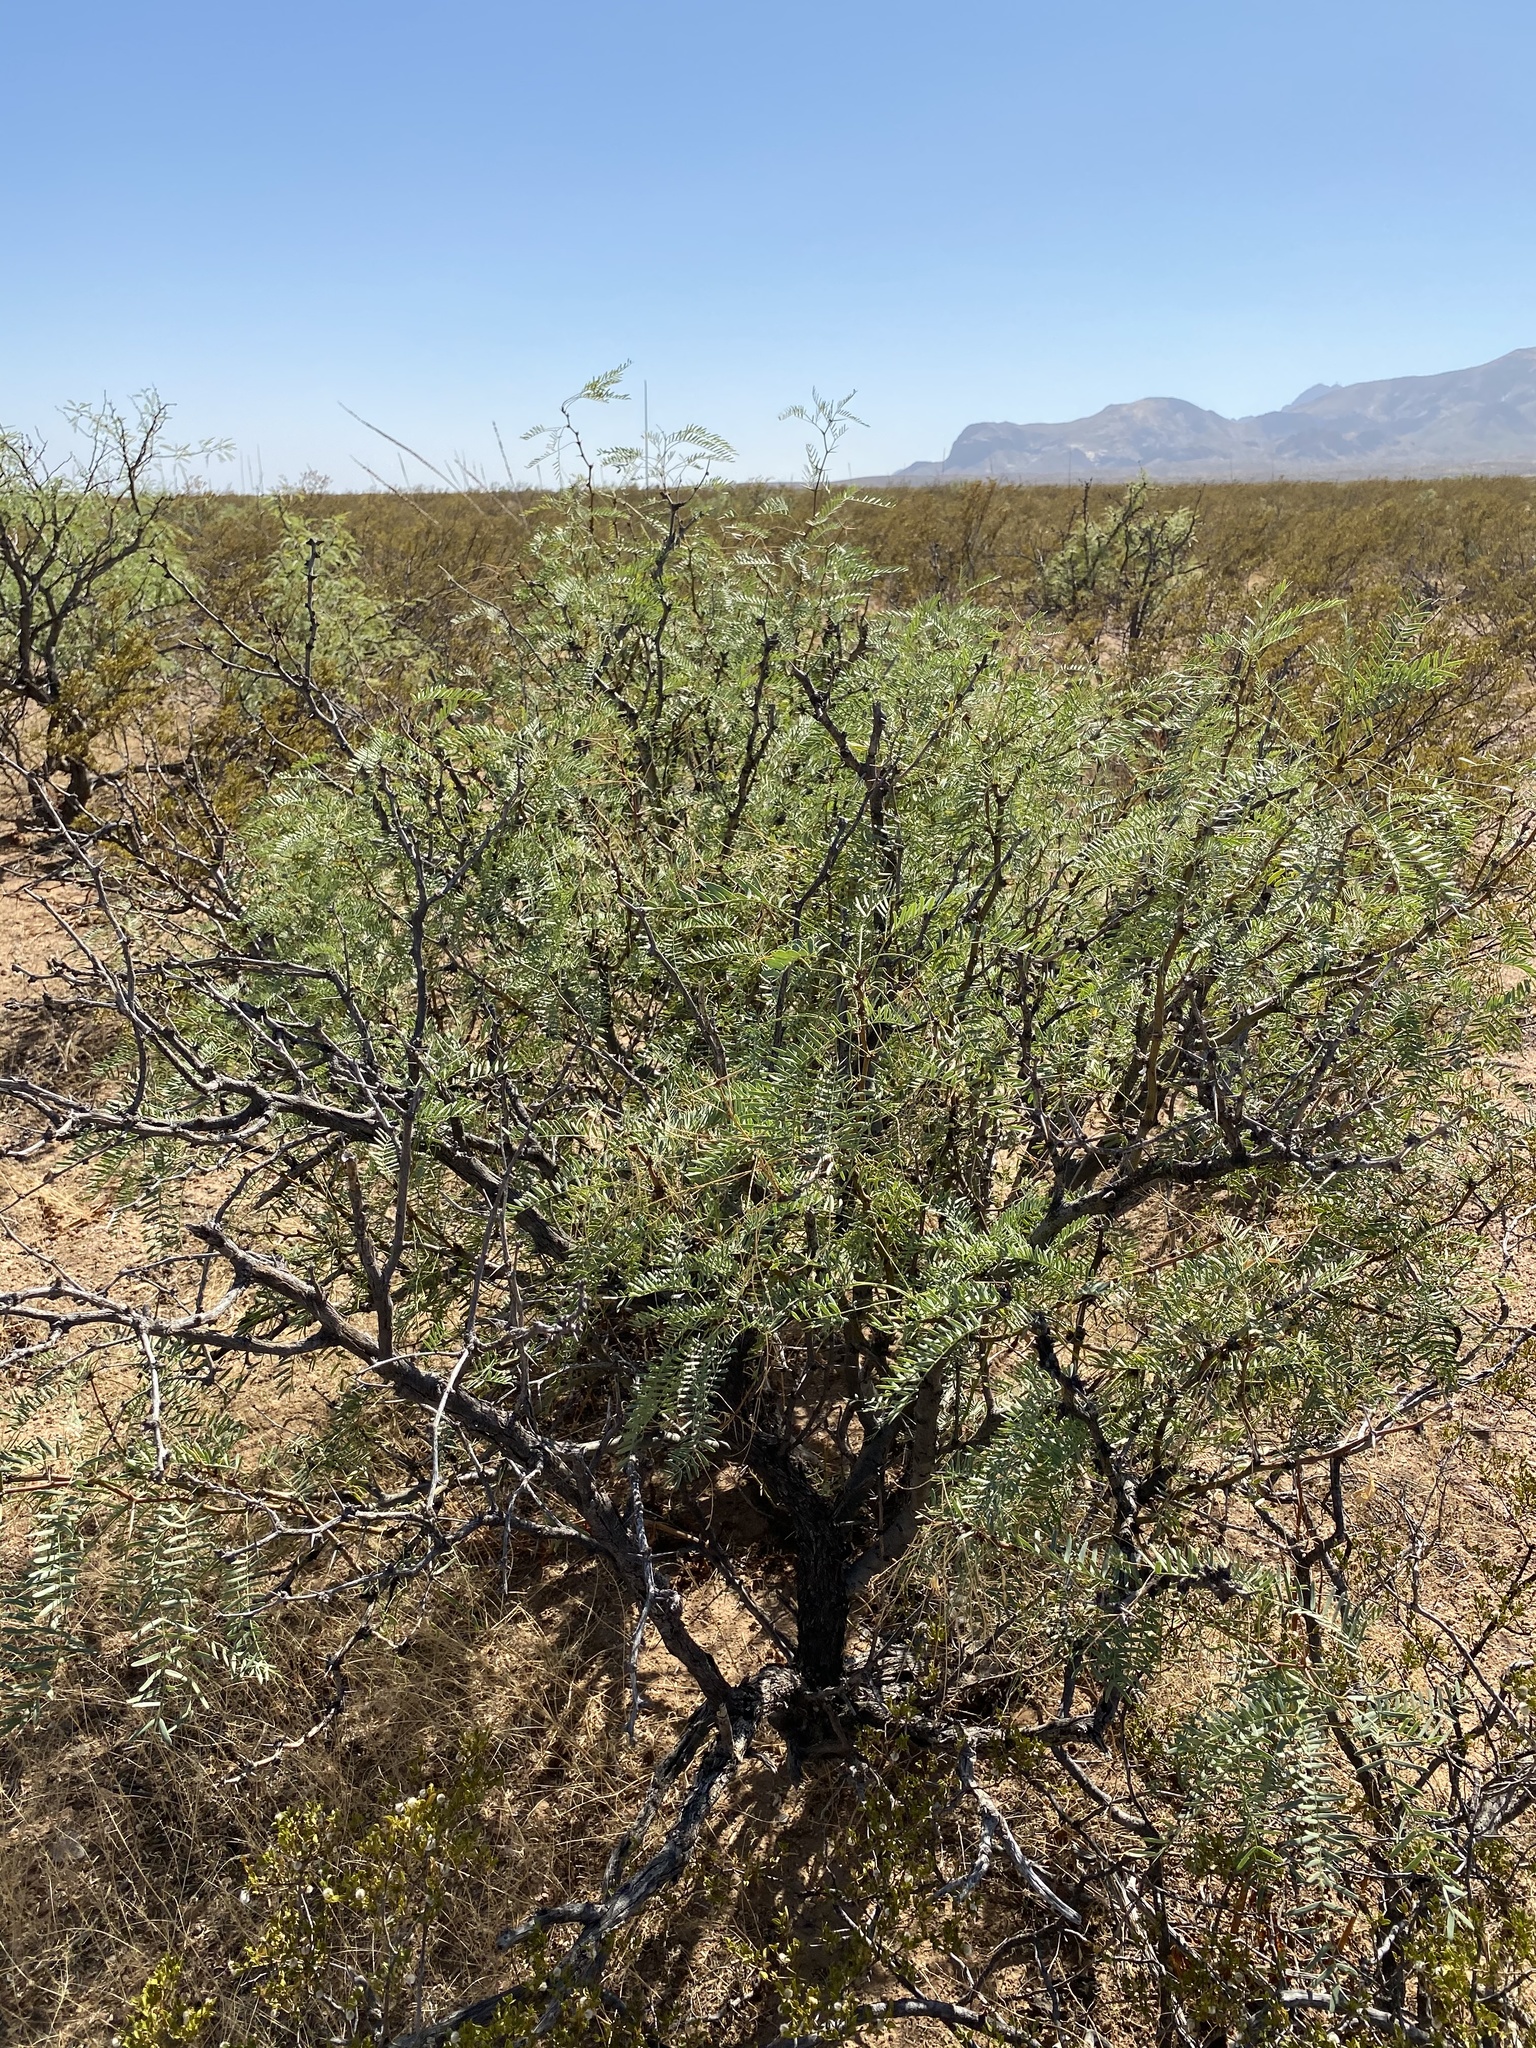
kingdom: Plantae
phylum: Tracheophyta
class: Magnoliopsida
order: Fabales
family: Fabaceae
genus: Prosopis
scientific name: Prosopis glandulosa
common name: Honey mesquite
